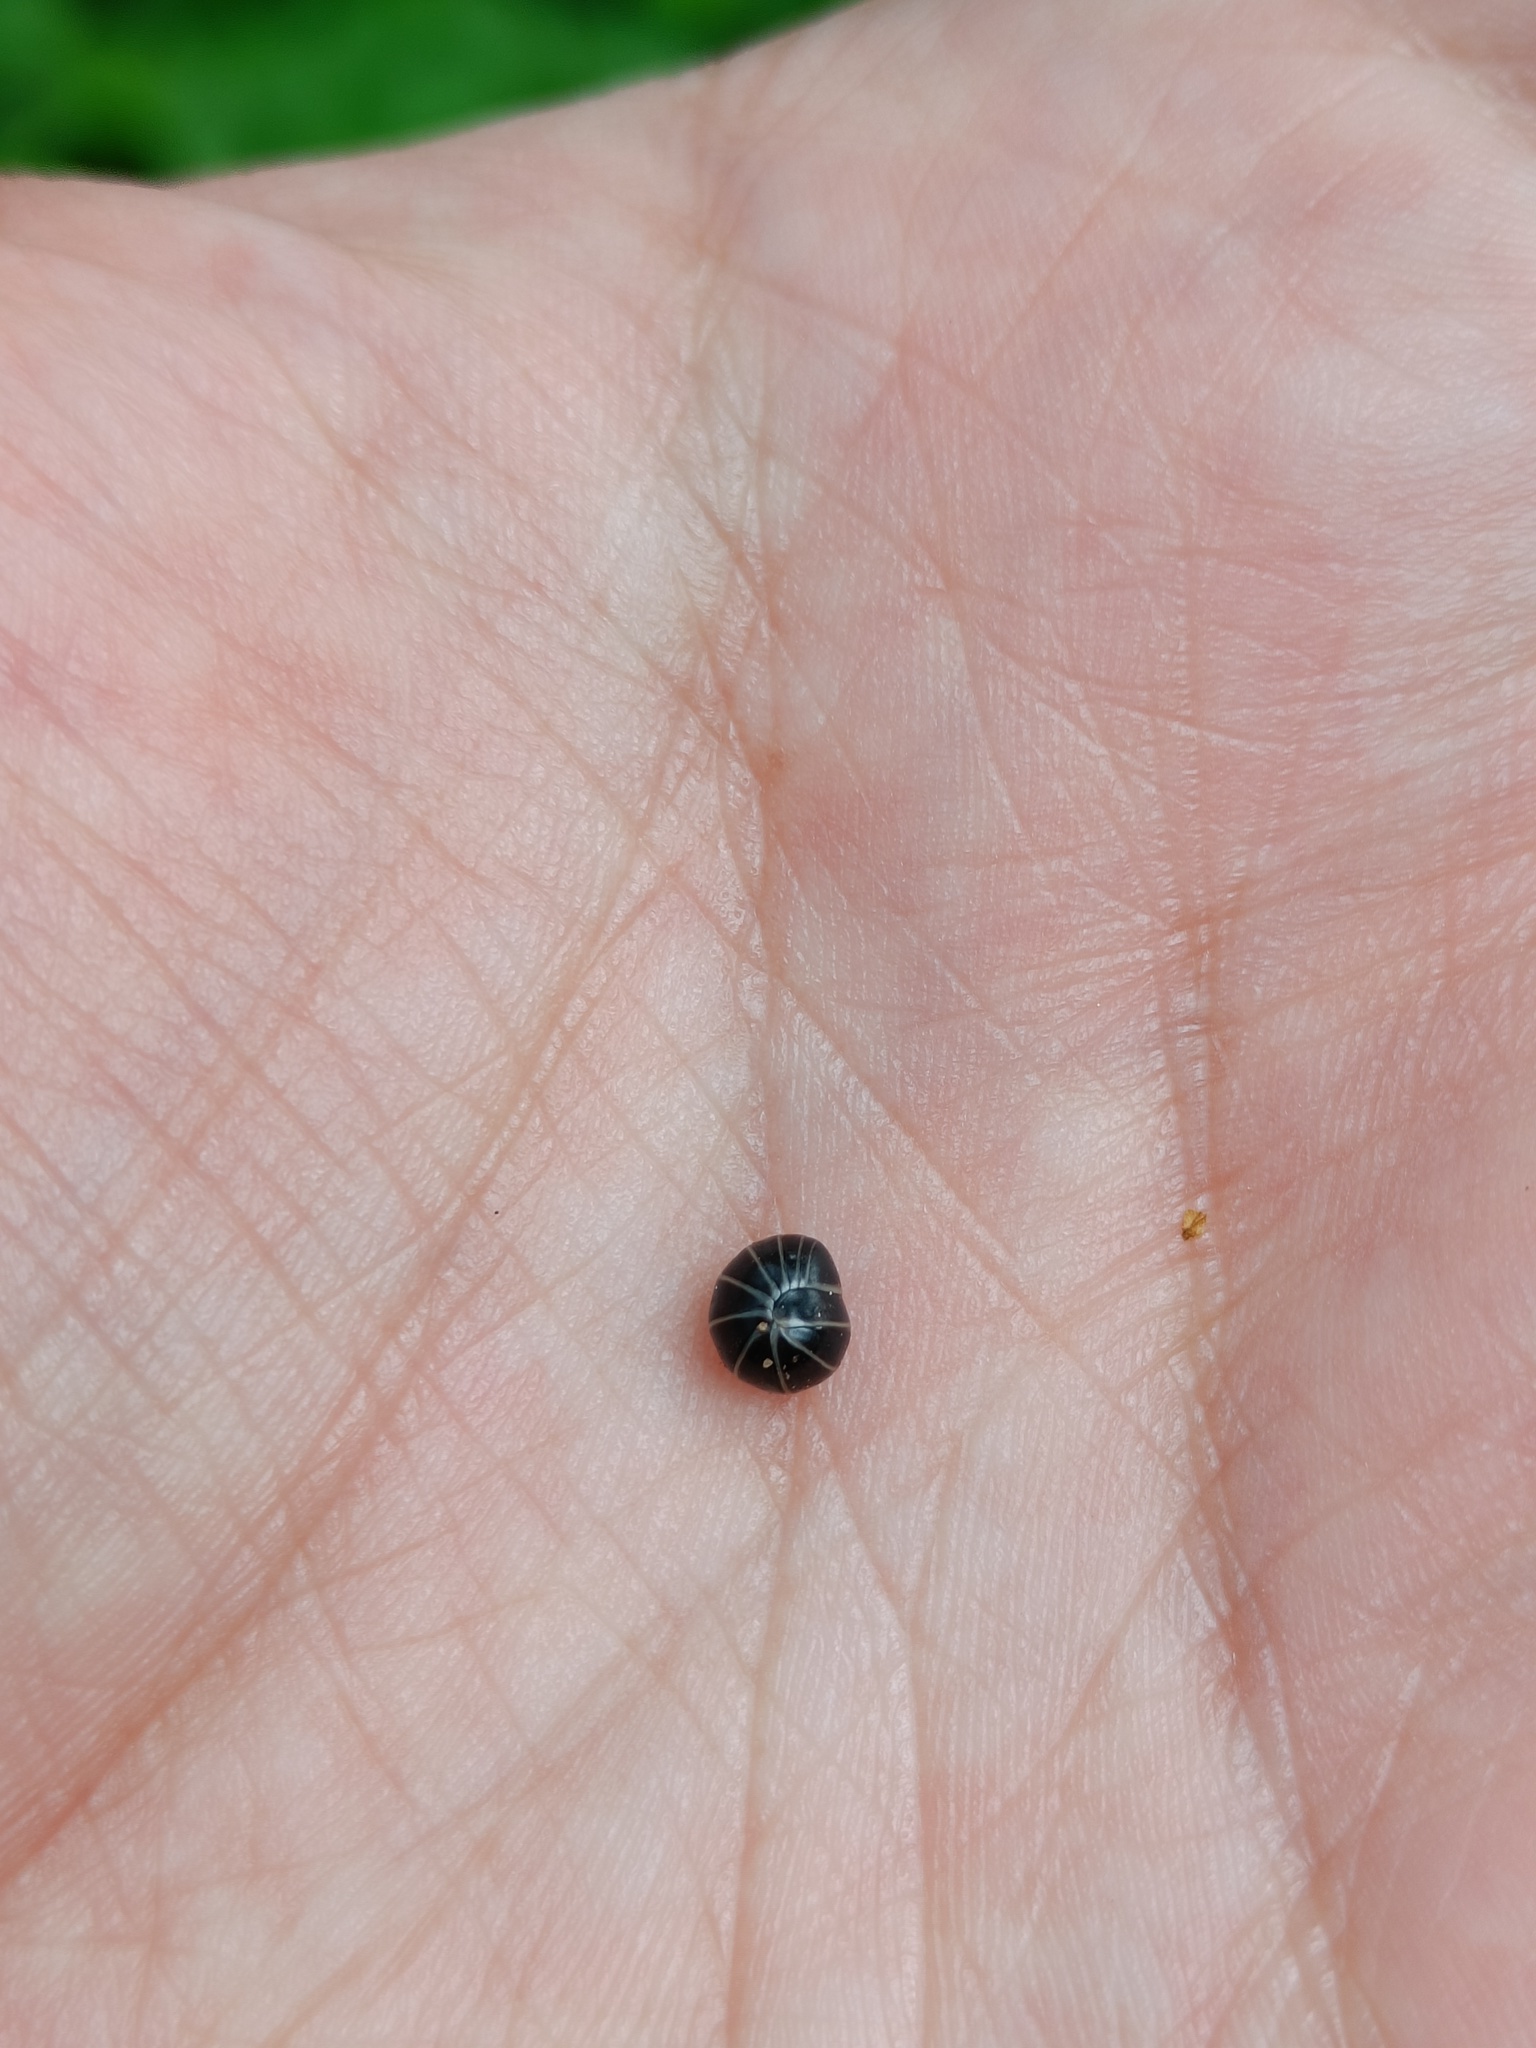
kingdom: Animalia
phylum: Arthropoda
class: Diplopoda
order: Glomerida
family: Glomeridae
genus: Glomeris
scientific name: Glomeris marginata
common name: Bordered pill millipede
